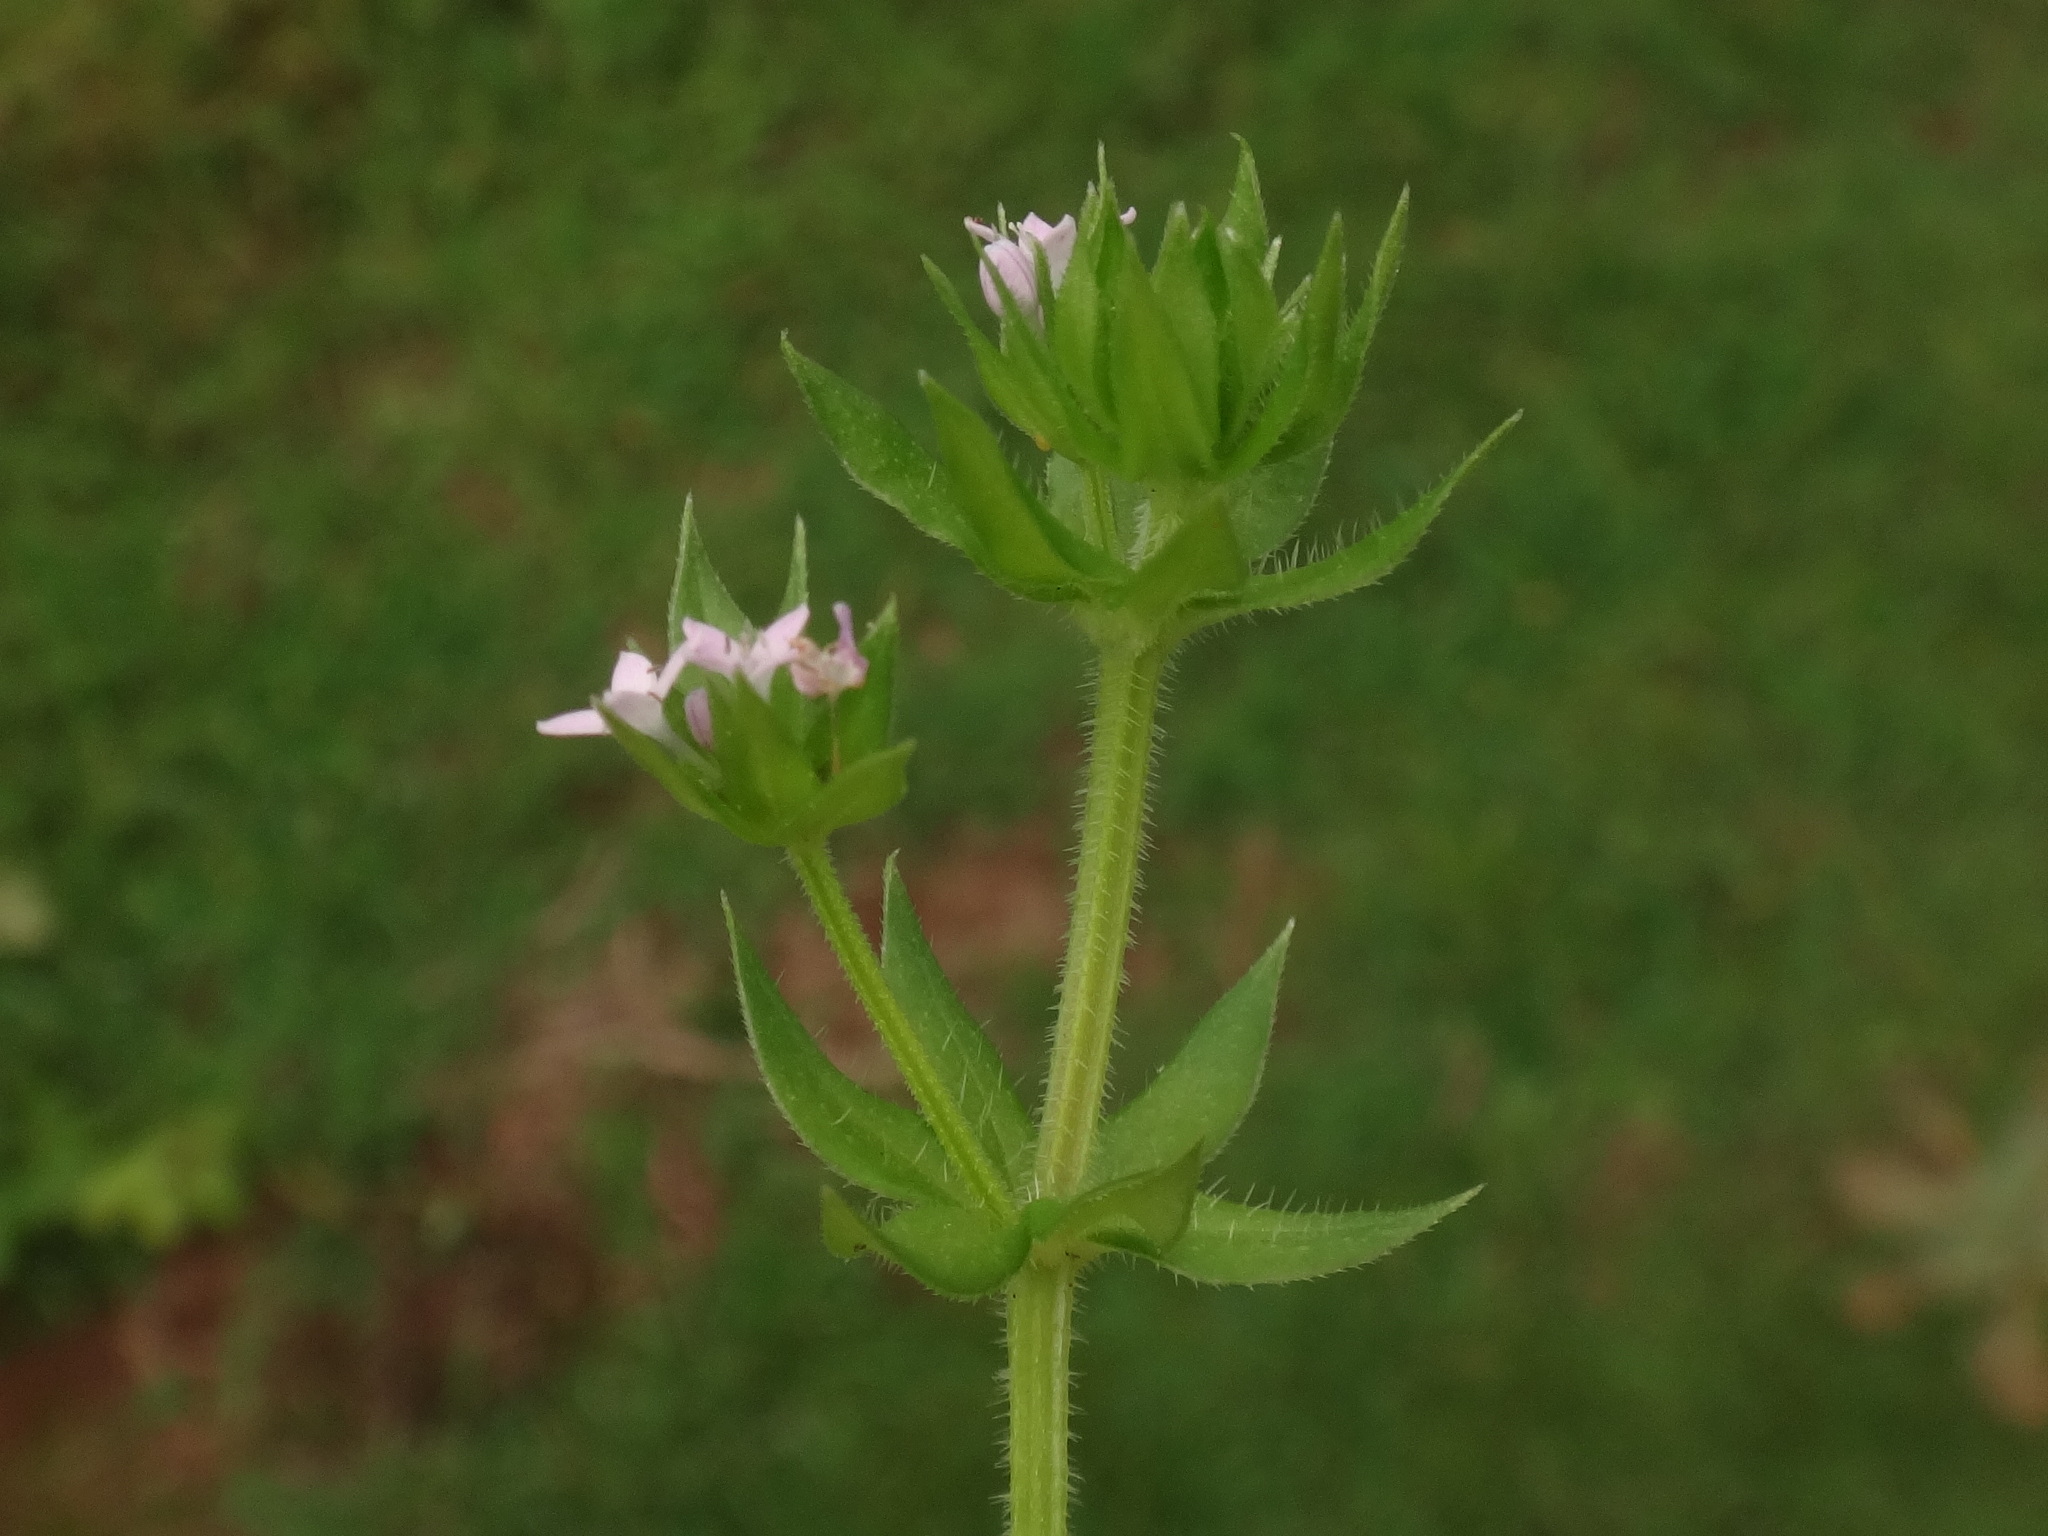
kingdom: Plantae
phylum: Tracheophyta
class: Magnoliopsida
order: Gentianales
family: Rubiaceae
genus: Sherardia
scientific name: Sherardia arvensis
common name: Field madder
